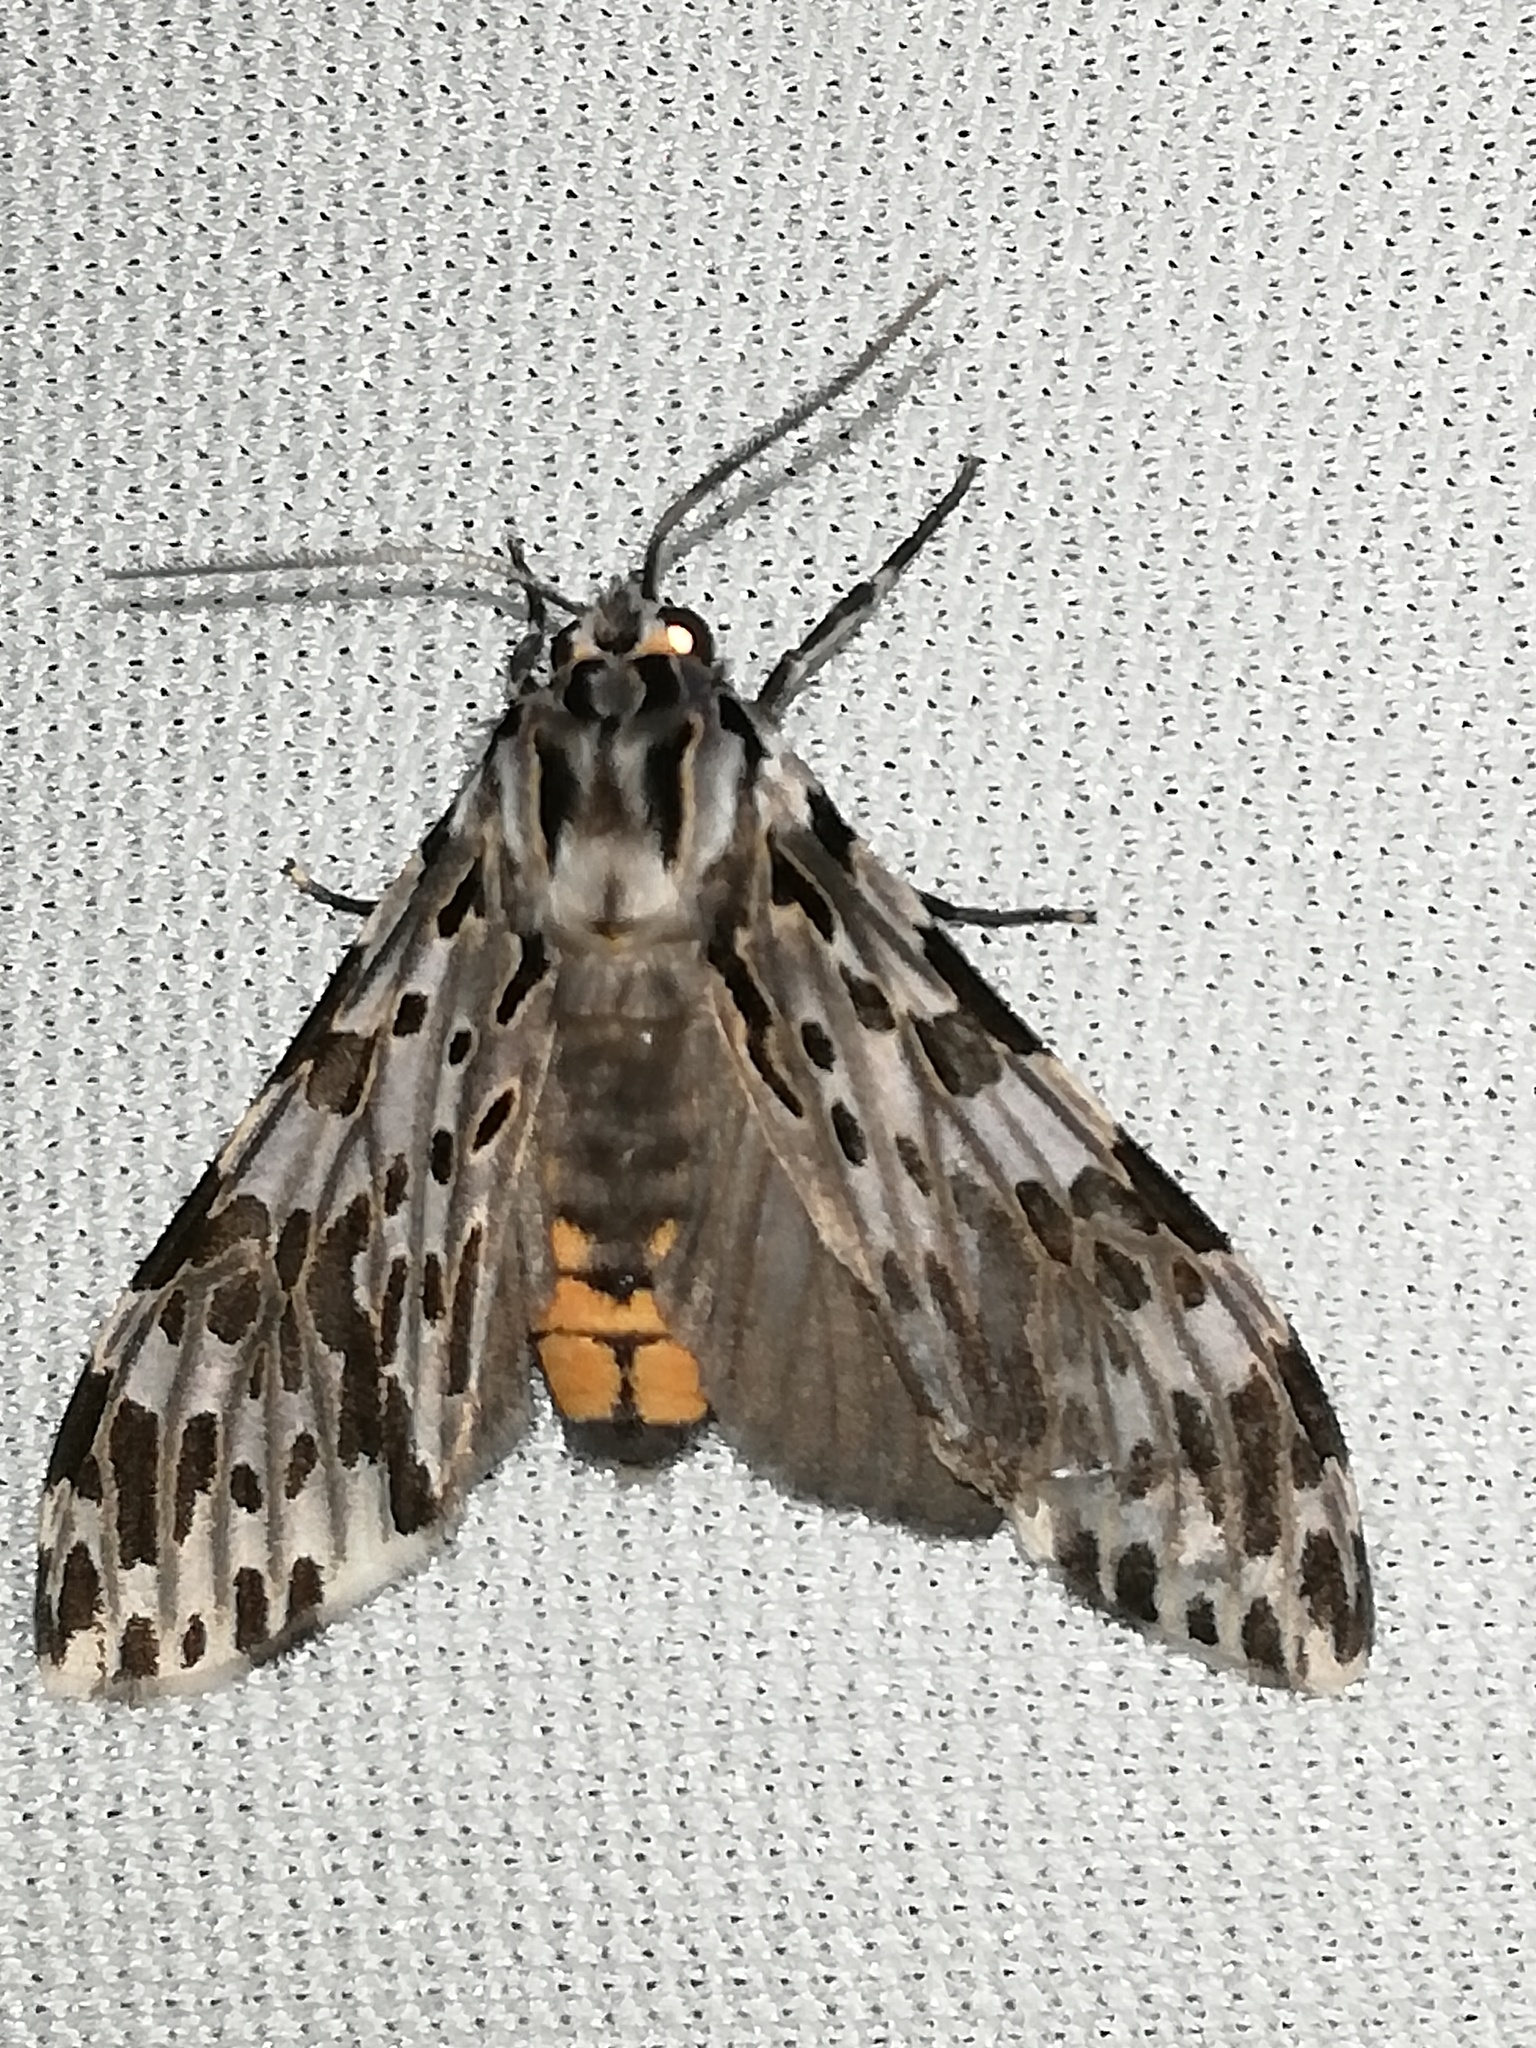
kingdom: Animalia
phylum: Arthropoda
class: Insecta
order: Lepidoptera
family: Erebidae
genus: Eucereon
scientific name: Eucereon confinis
